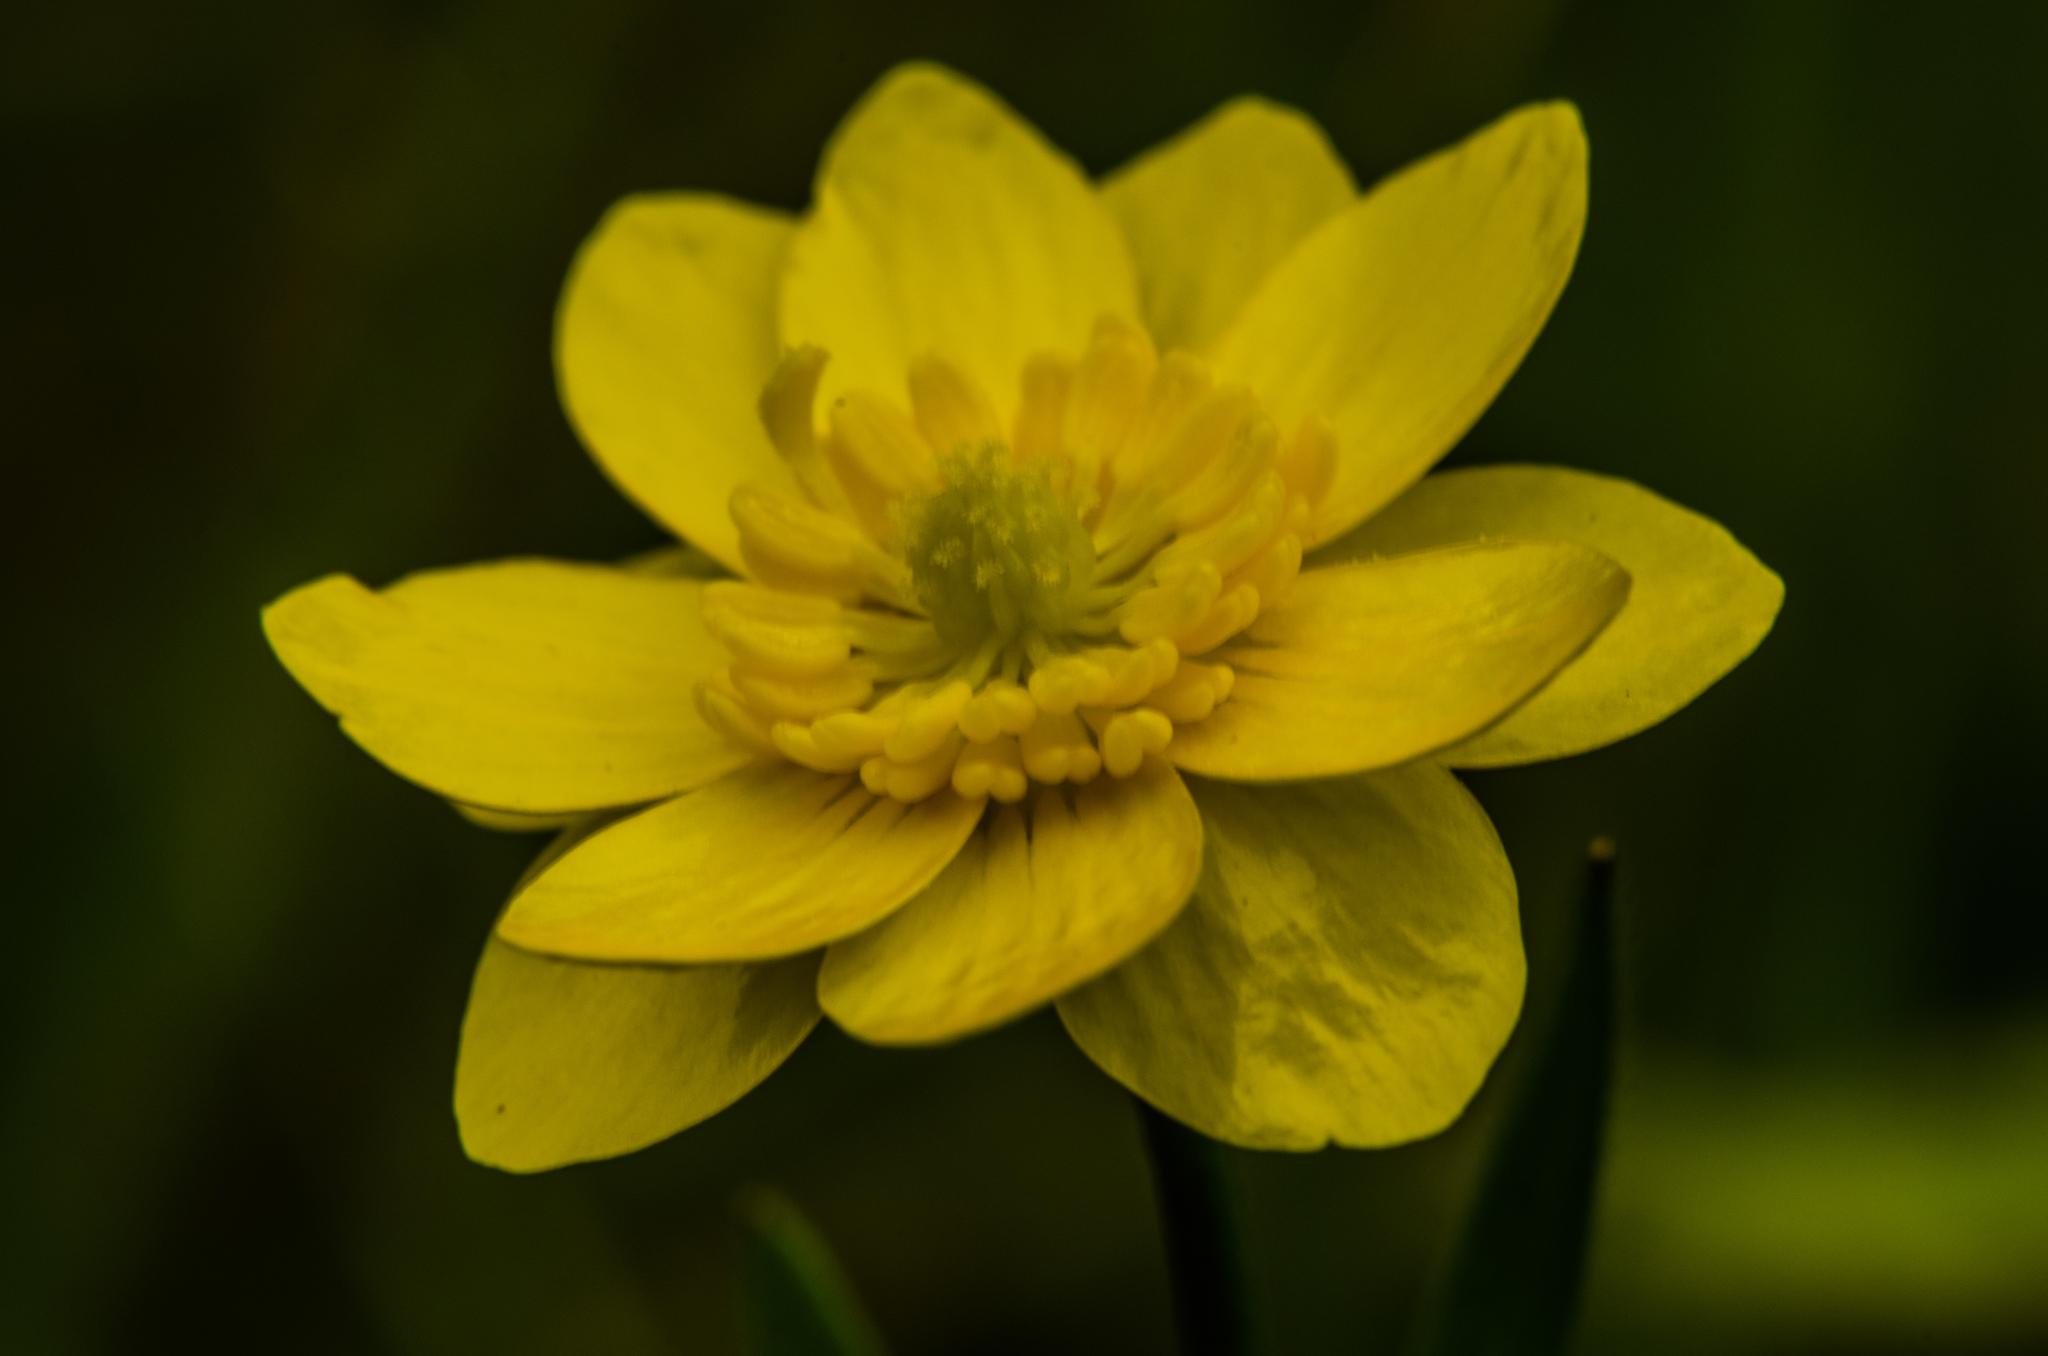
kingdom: Plantae
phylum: Tracheophyta
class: Magnoliopsida
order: Ranunculales
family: Ranunculaceae
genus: Ranunculus
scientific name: Ranunculus californicus
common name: California buttercup
